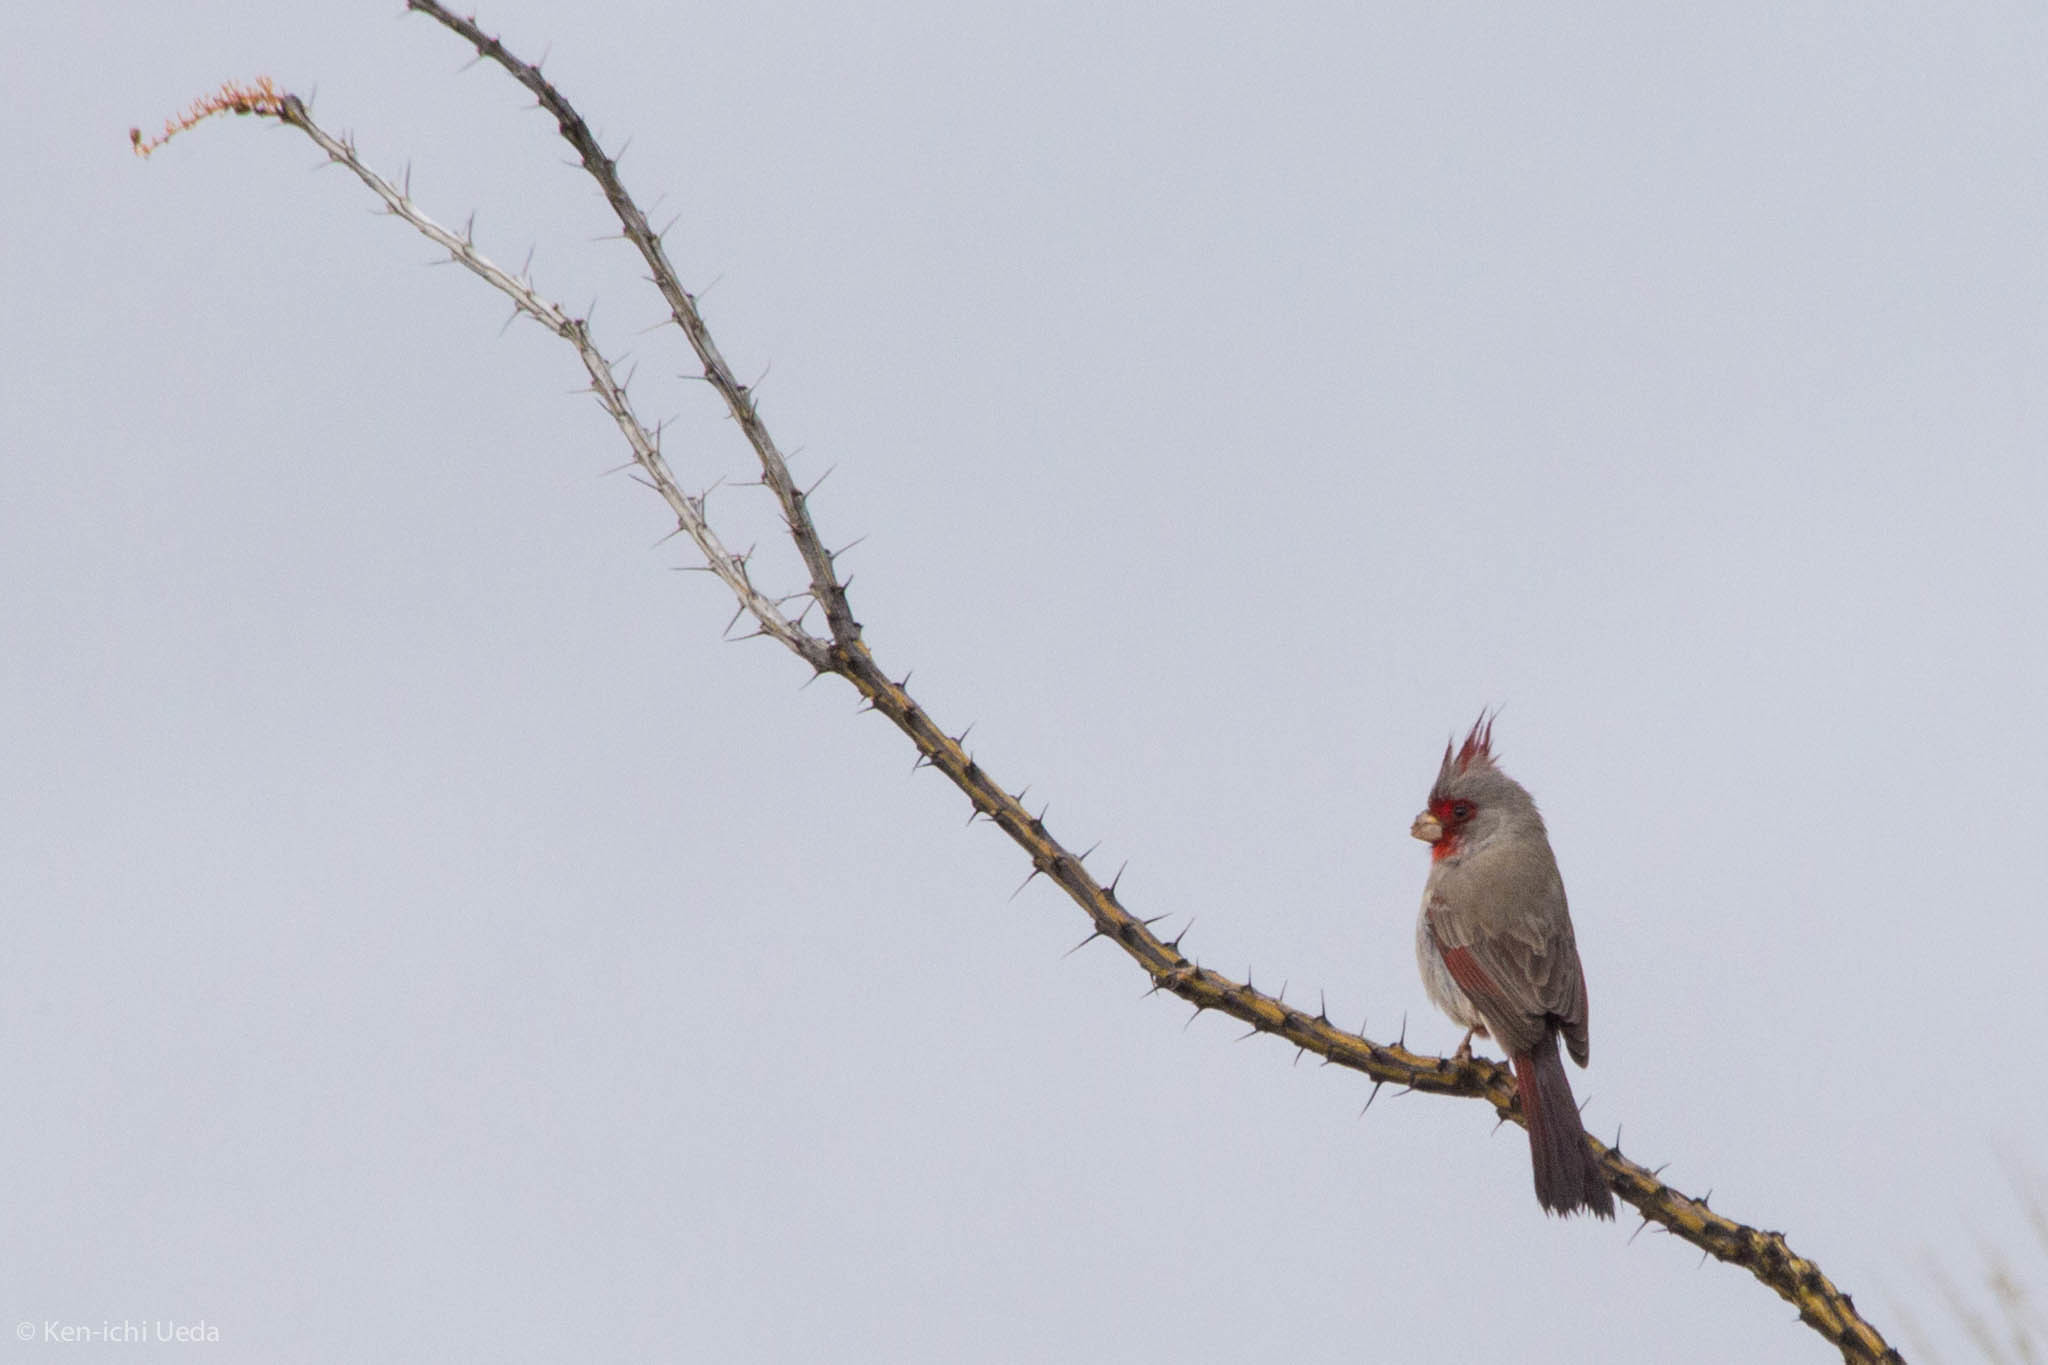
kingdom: Animalia
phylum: Chordata
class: Aves
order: Passeriformes
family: Cardinalidae
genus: Cardinalis
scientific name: Cardinalis sinuatus
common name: Pyrrhuloxia
